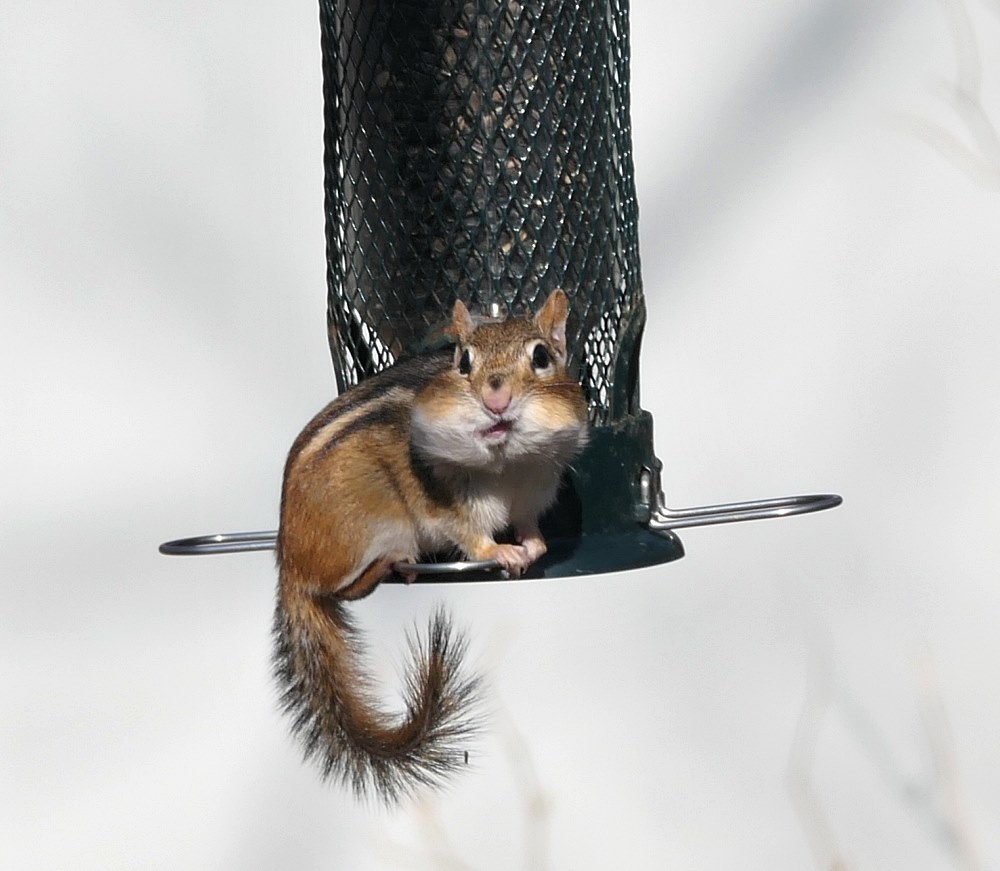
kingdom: Animalia
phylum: Chordata
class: Mammalia
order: Rodentia
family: Sciuridae
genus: Tamias
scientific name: Tamias striatus
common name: Eastern chipmunk
